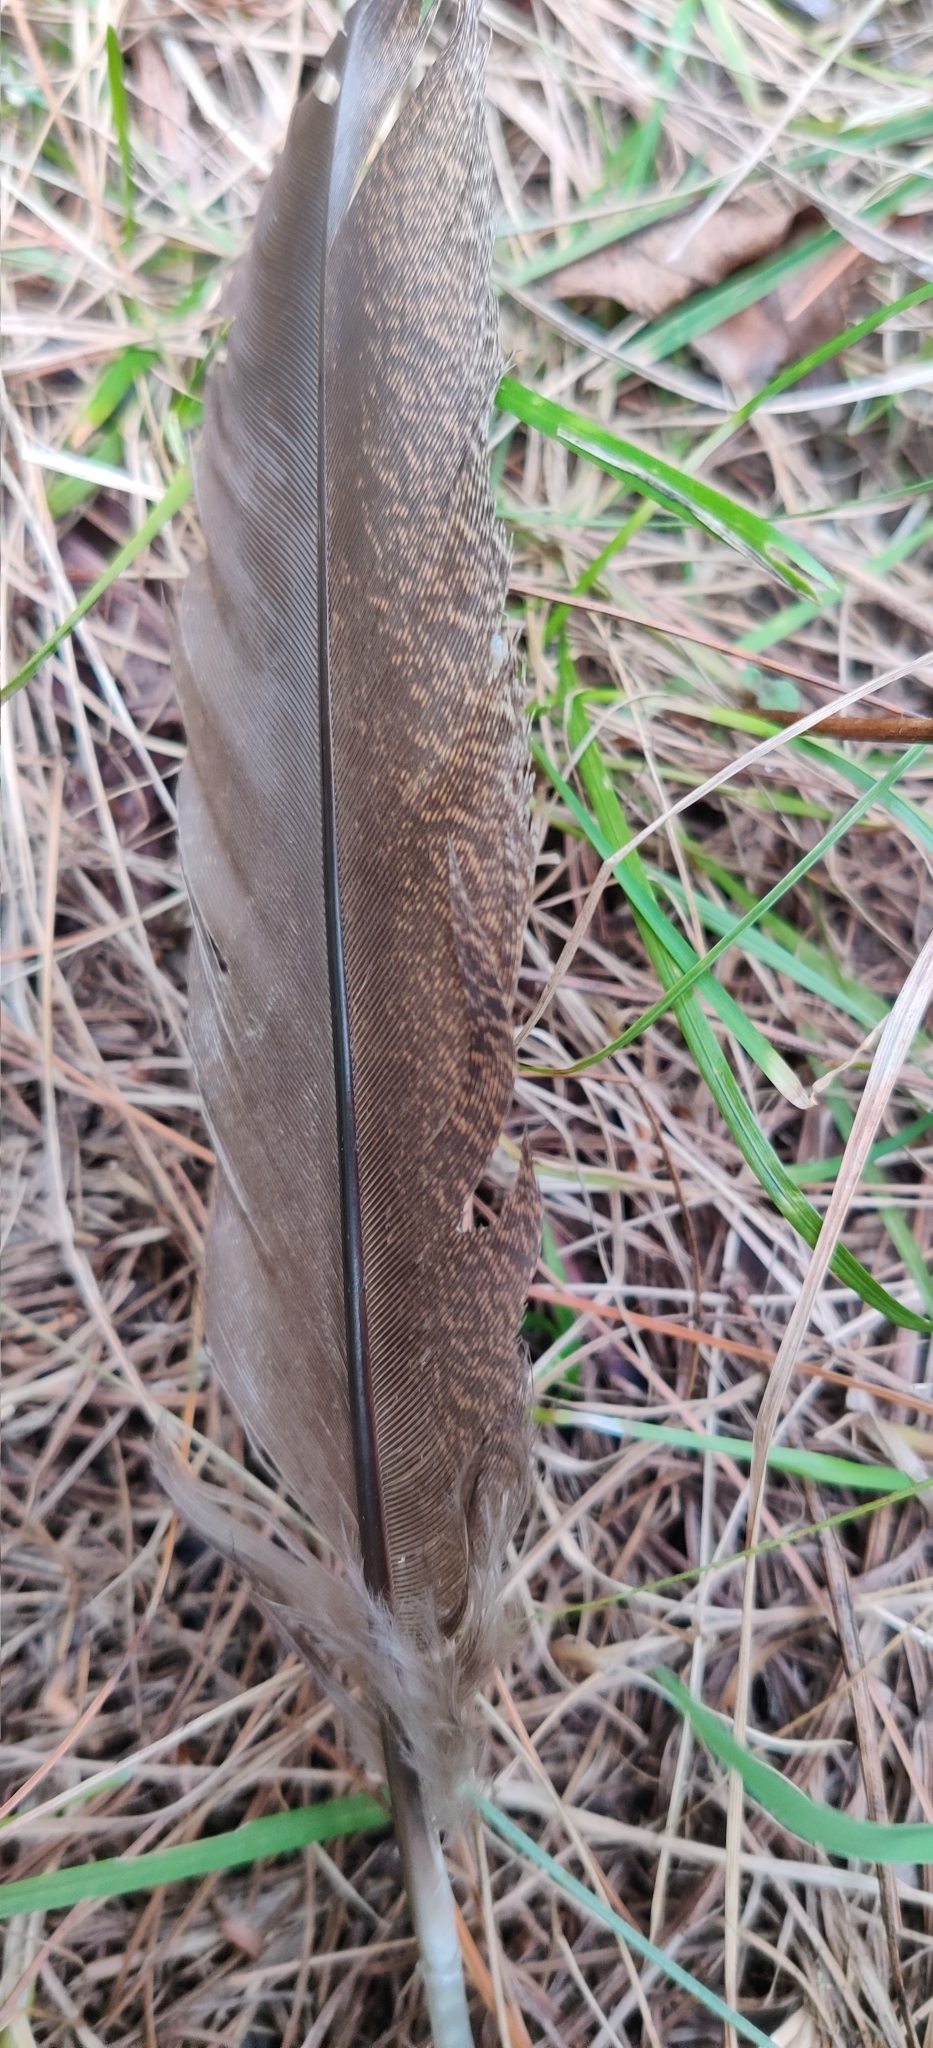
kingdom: Animalia
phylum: Chordata
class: Aves
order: Galliformes
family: Phasianidae
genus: Pavo
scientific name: Pavo cristatus
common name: Indian peafowl
